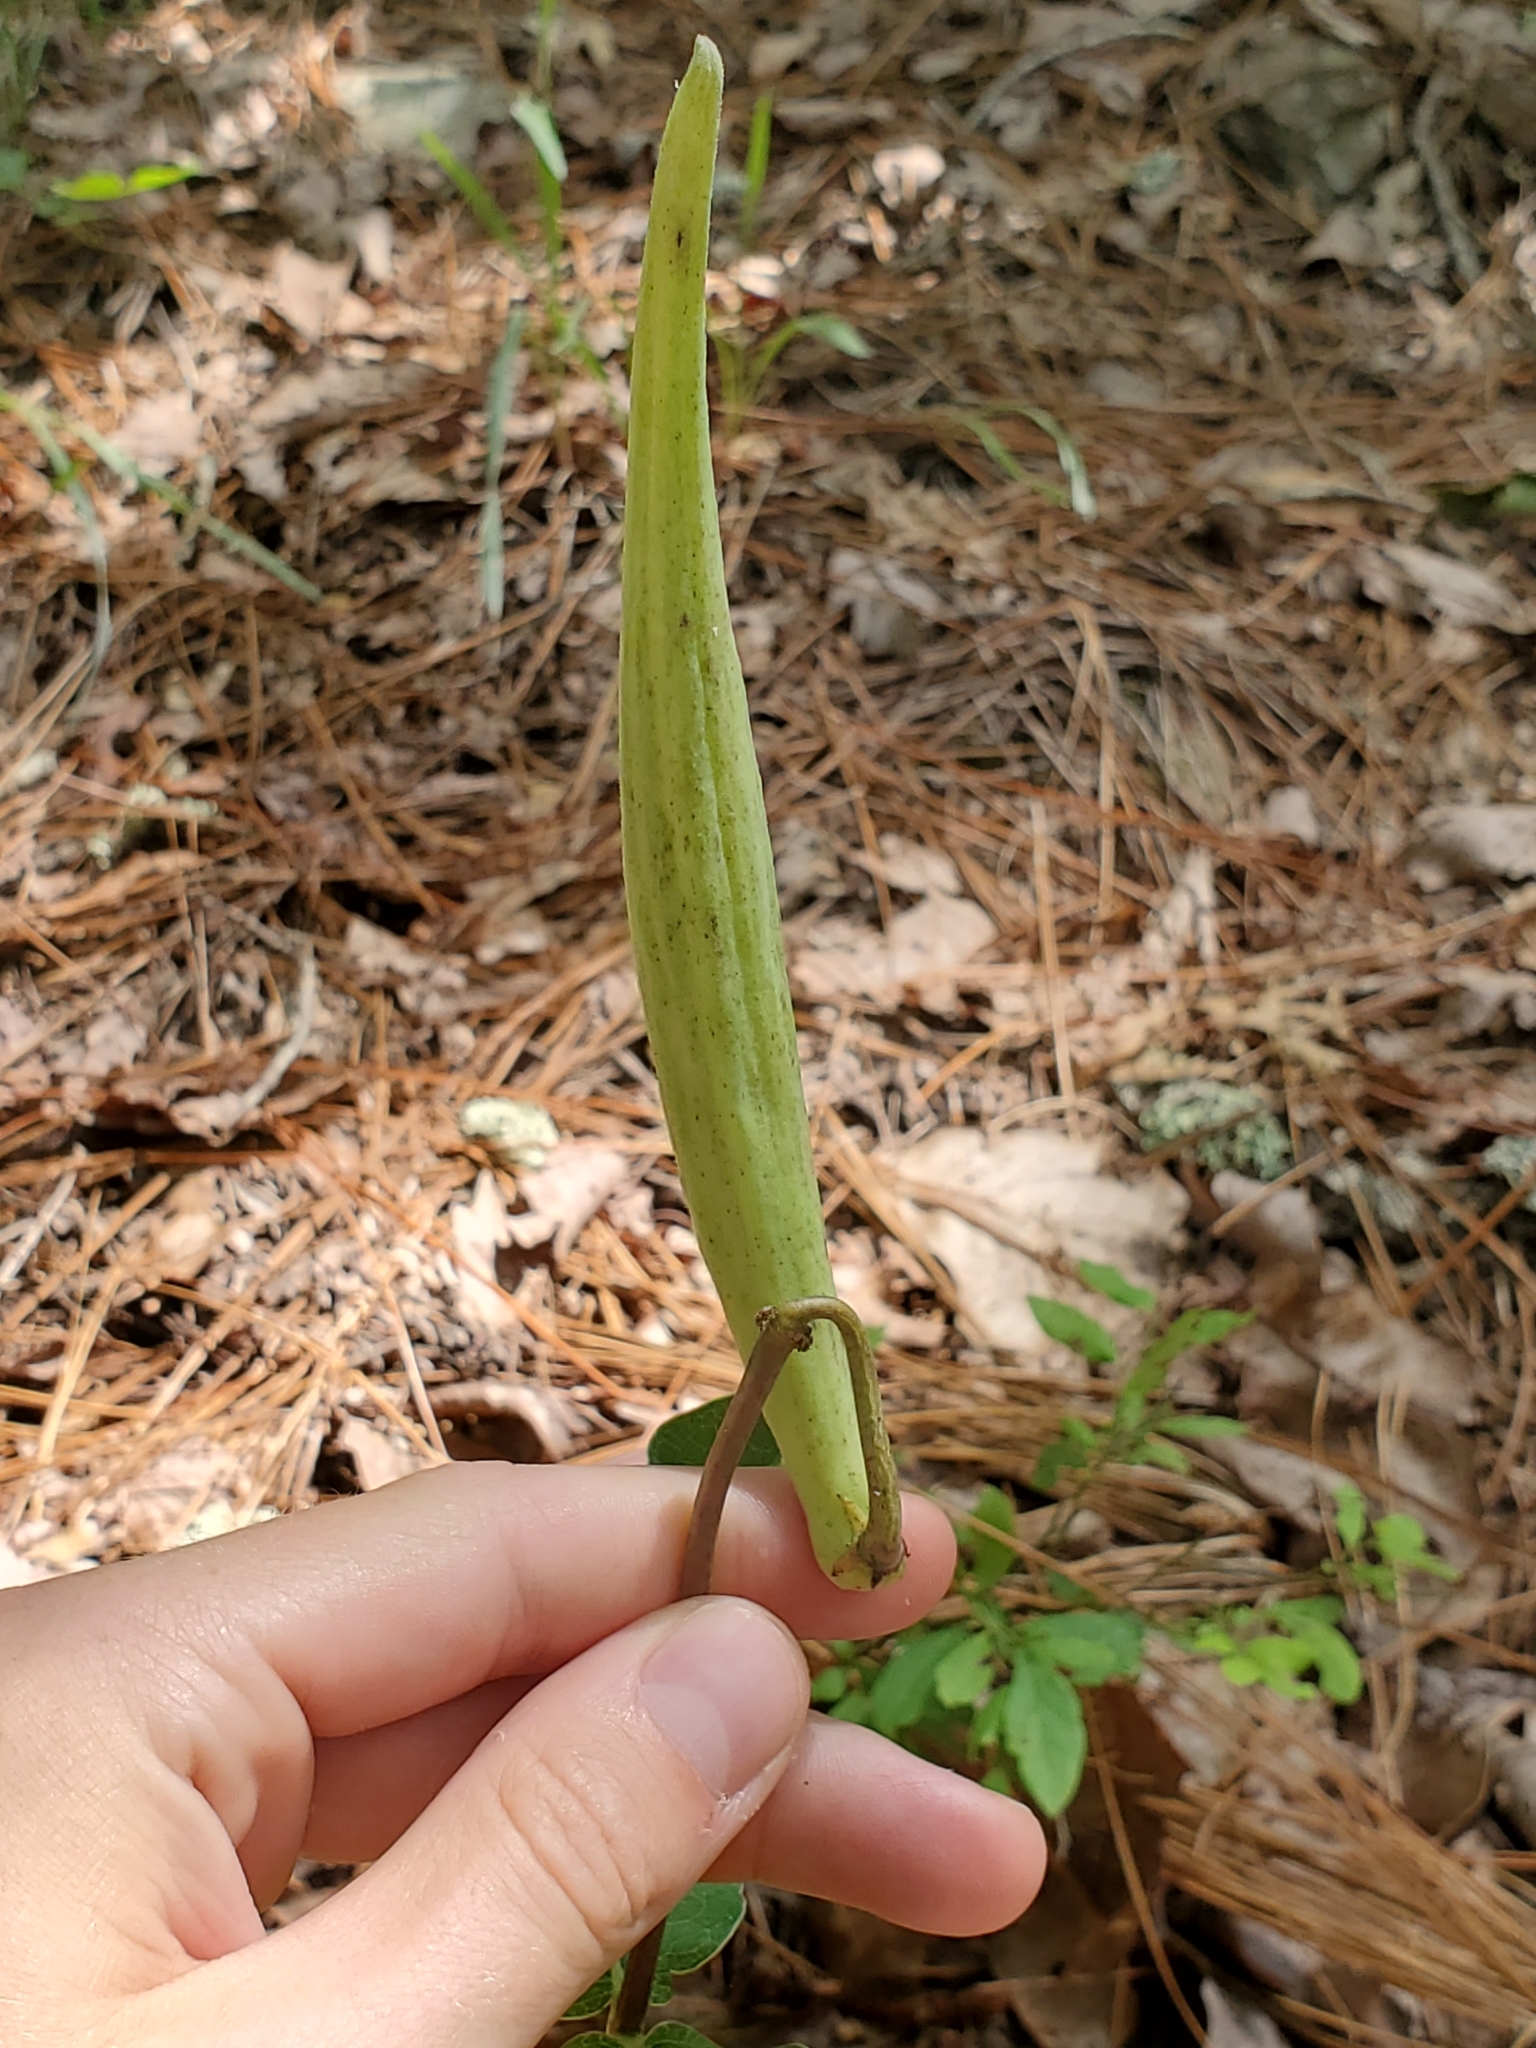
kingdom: Plantae
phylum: Tracheophyta
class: Magnoliopsida
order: Gentianales
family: Apocynaceae
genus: Asclepias
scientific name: Asclepias amplexicaulis
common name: Blunt-leaf milkweed
